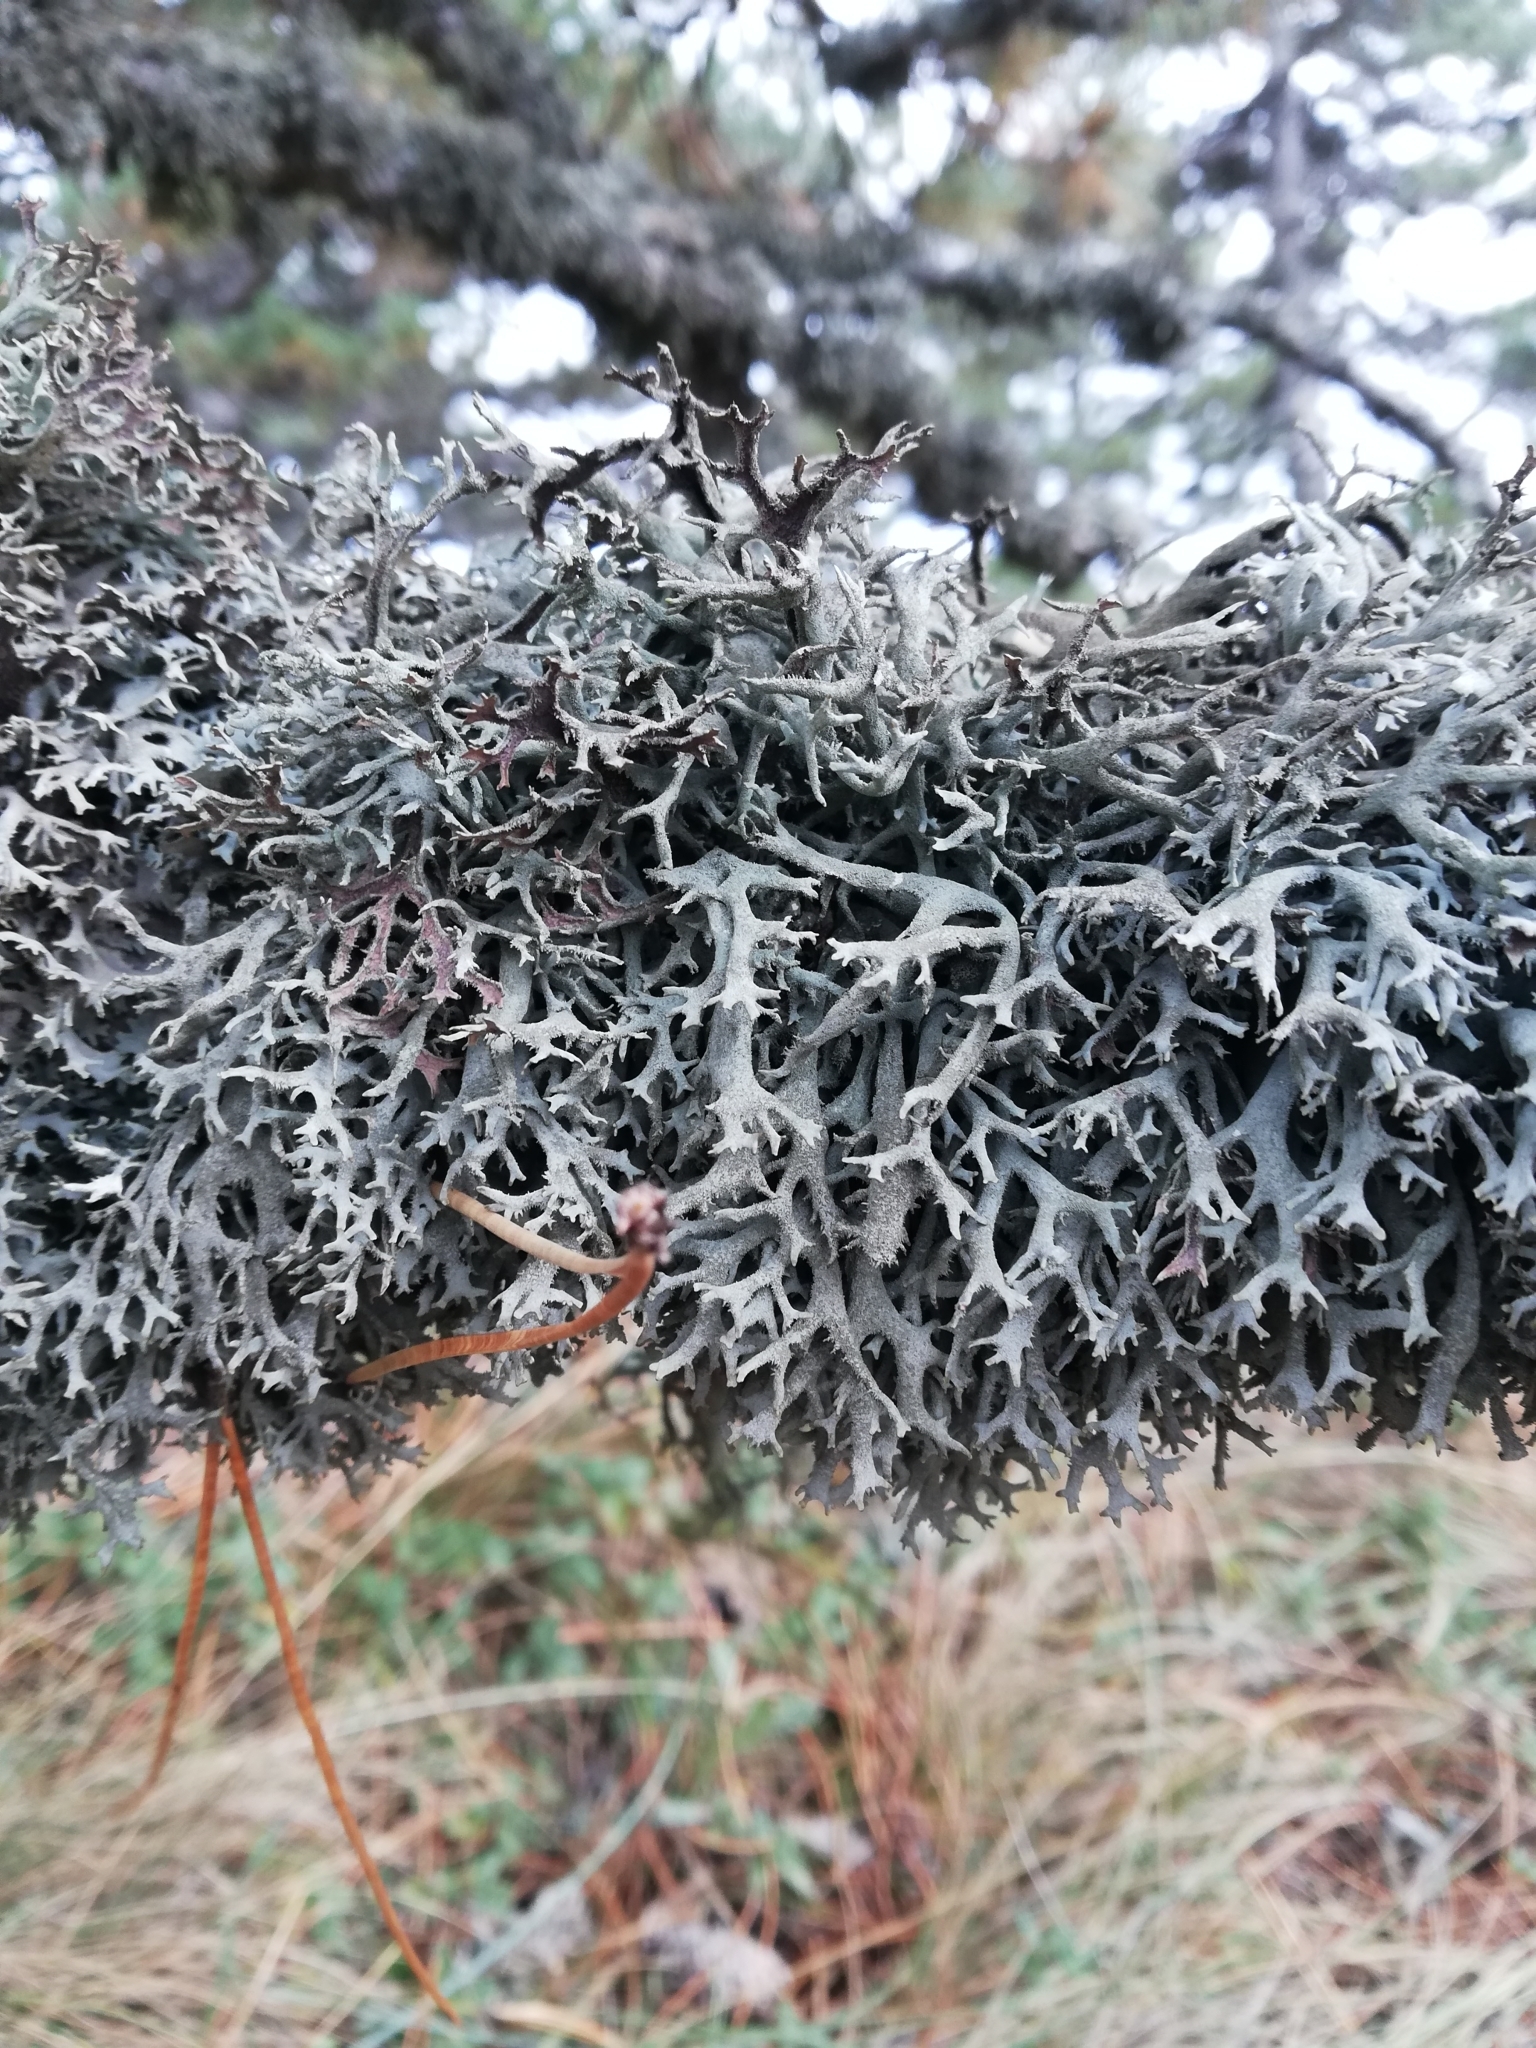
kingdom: Fungi
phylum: Ascomycota
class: Lecanoromycetes
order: Lecanorales
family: Parmeliaceae
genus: Pseudevernia
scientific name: Pseudevernia furfuracea
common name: Tree moss
